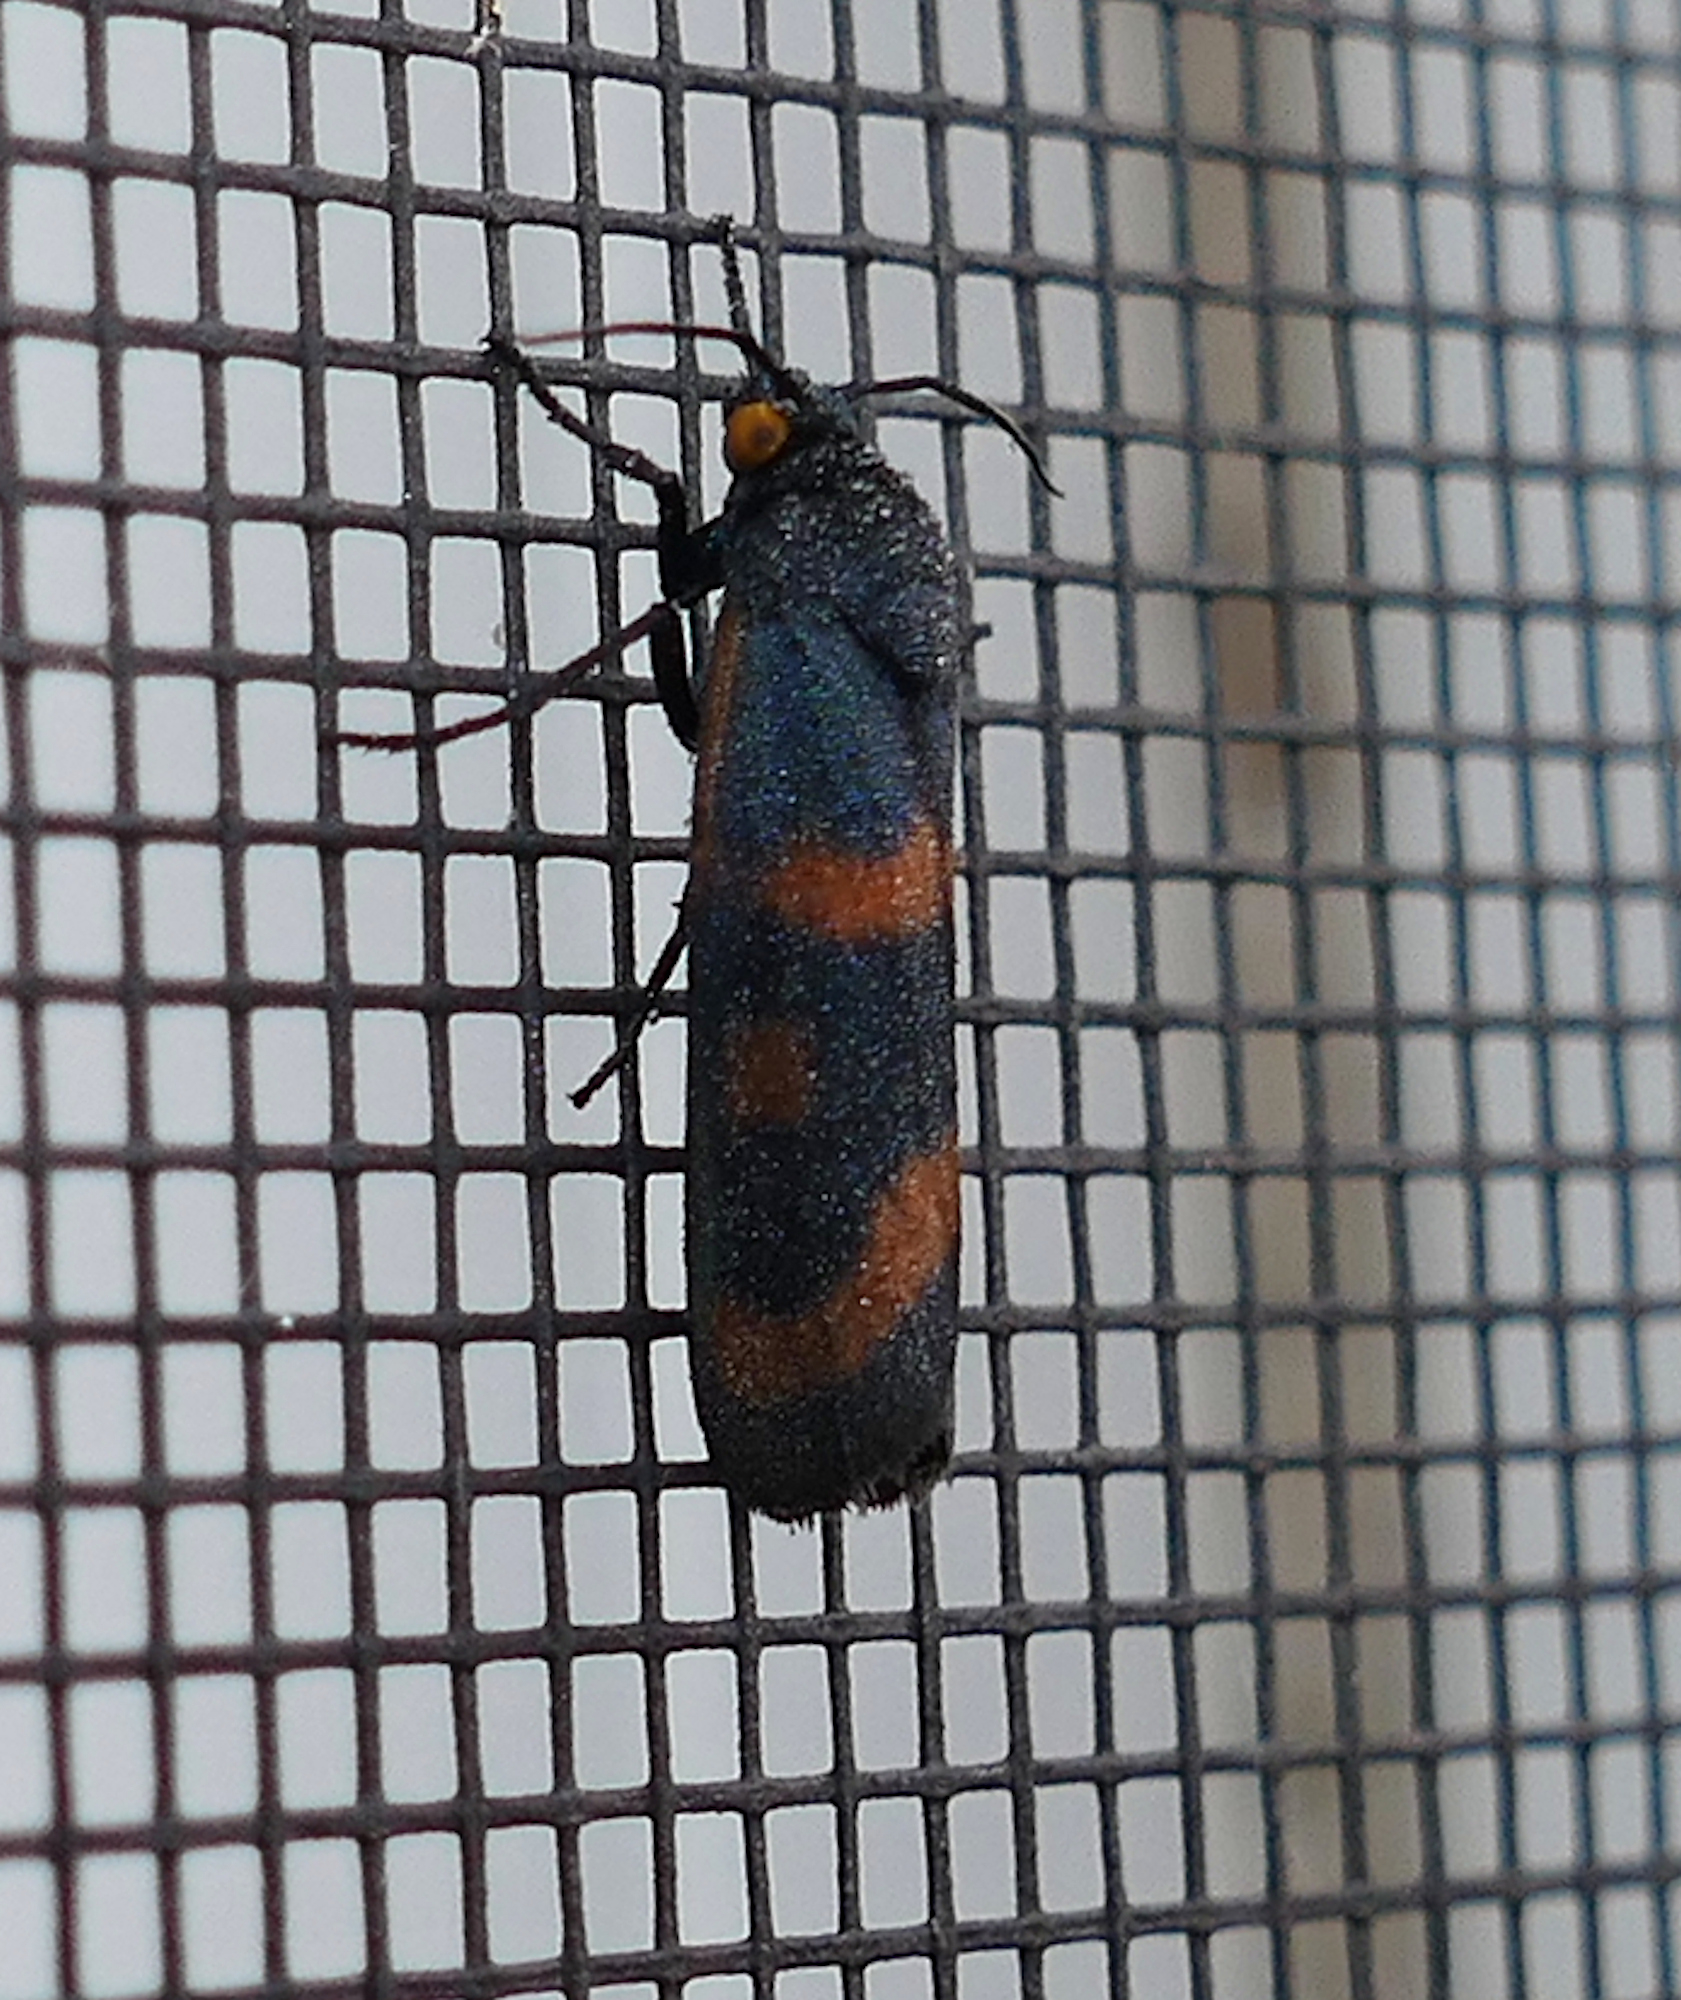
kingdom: Animalia
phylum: Arthropoda
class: Insecta
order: Lepidoptera
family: Noctuidae
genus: Cydosia
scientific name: Cydosia aurivitta
